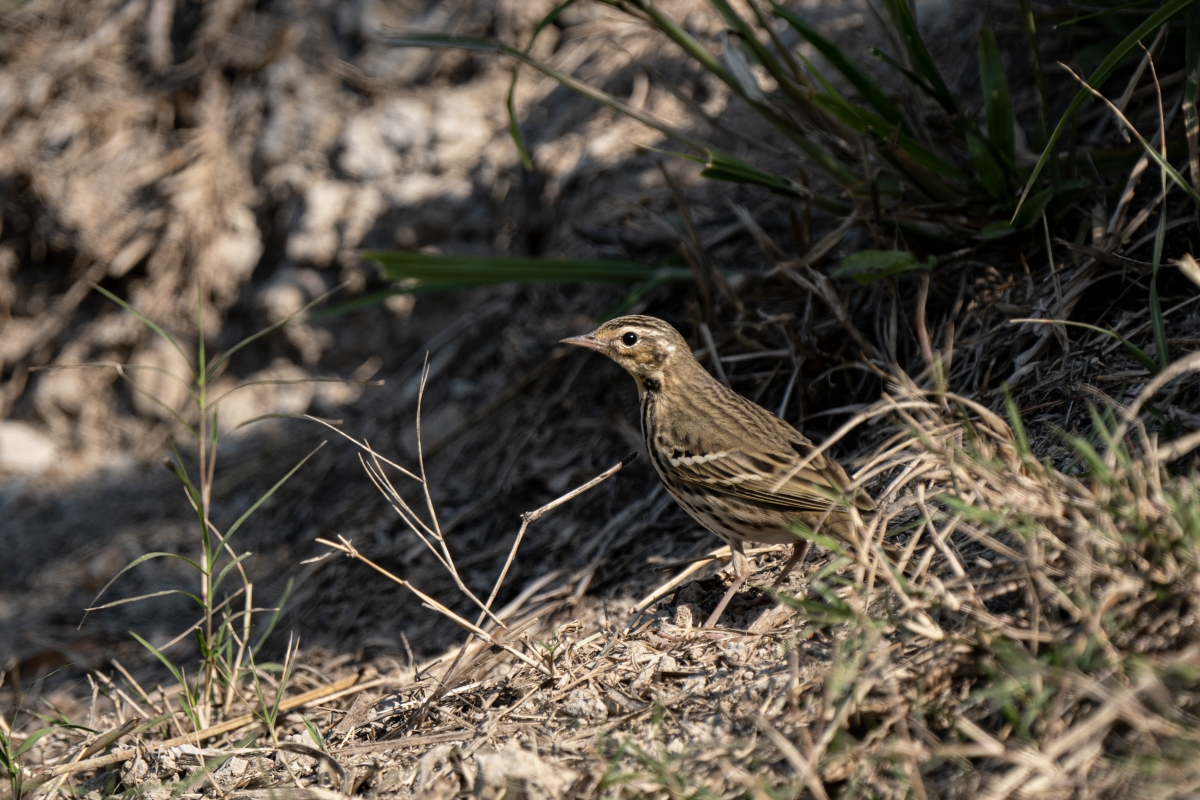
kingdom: Animalia
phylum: Chordata
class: Aves
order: Passeriformes
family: Motacillidae
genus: Anthus
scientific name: Anthus hodgsoni
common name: Olive-backed pipit
